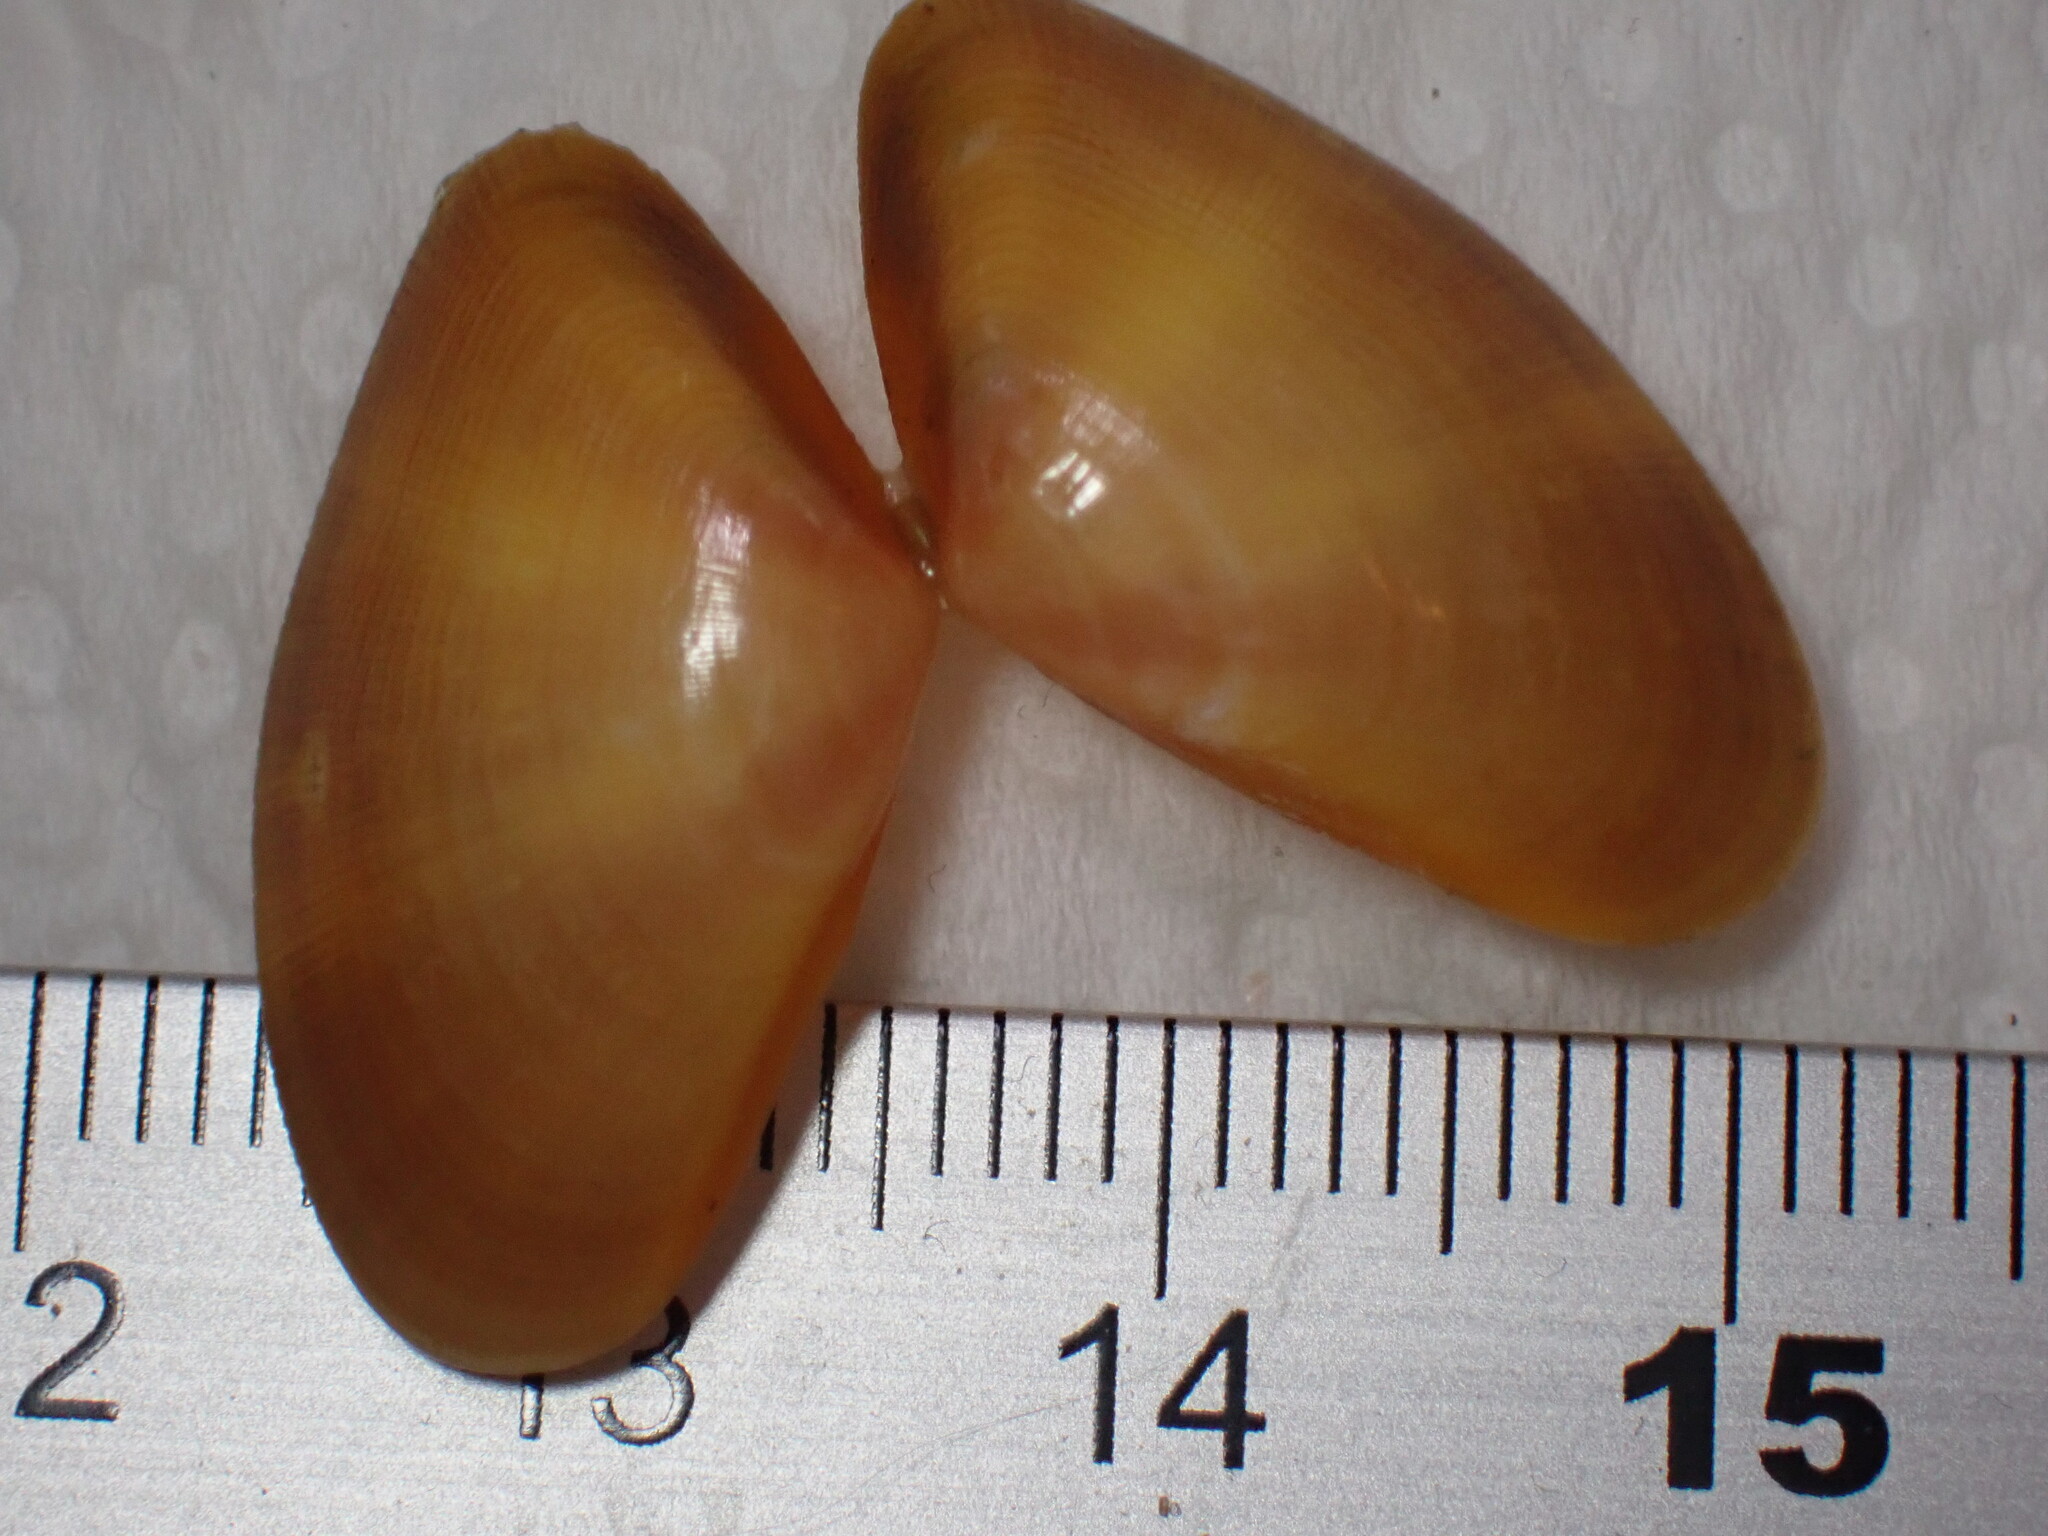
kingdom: Animalia
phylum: Mollusca
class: Bivalvia
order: Cardiida
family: Donacidae
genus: Donax
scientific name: Donax vittatus
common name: Banded wedge-shell
